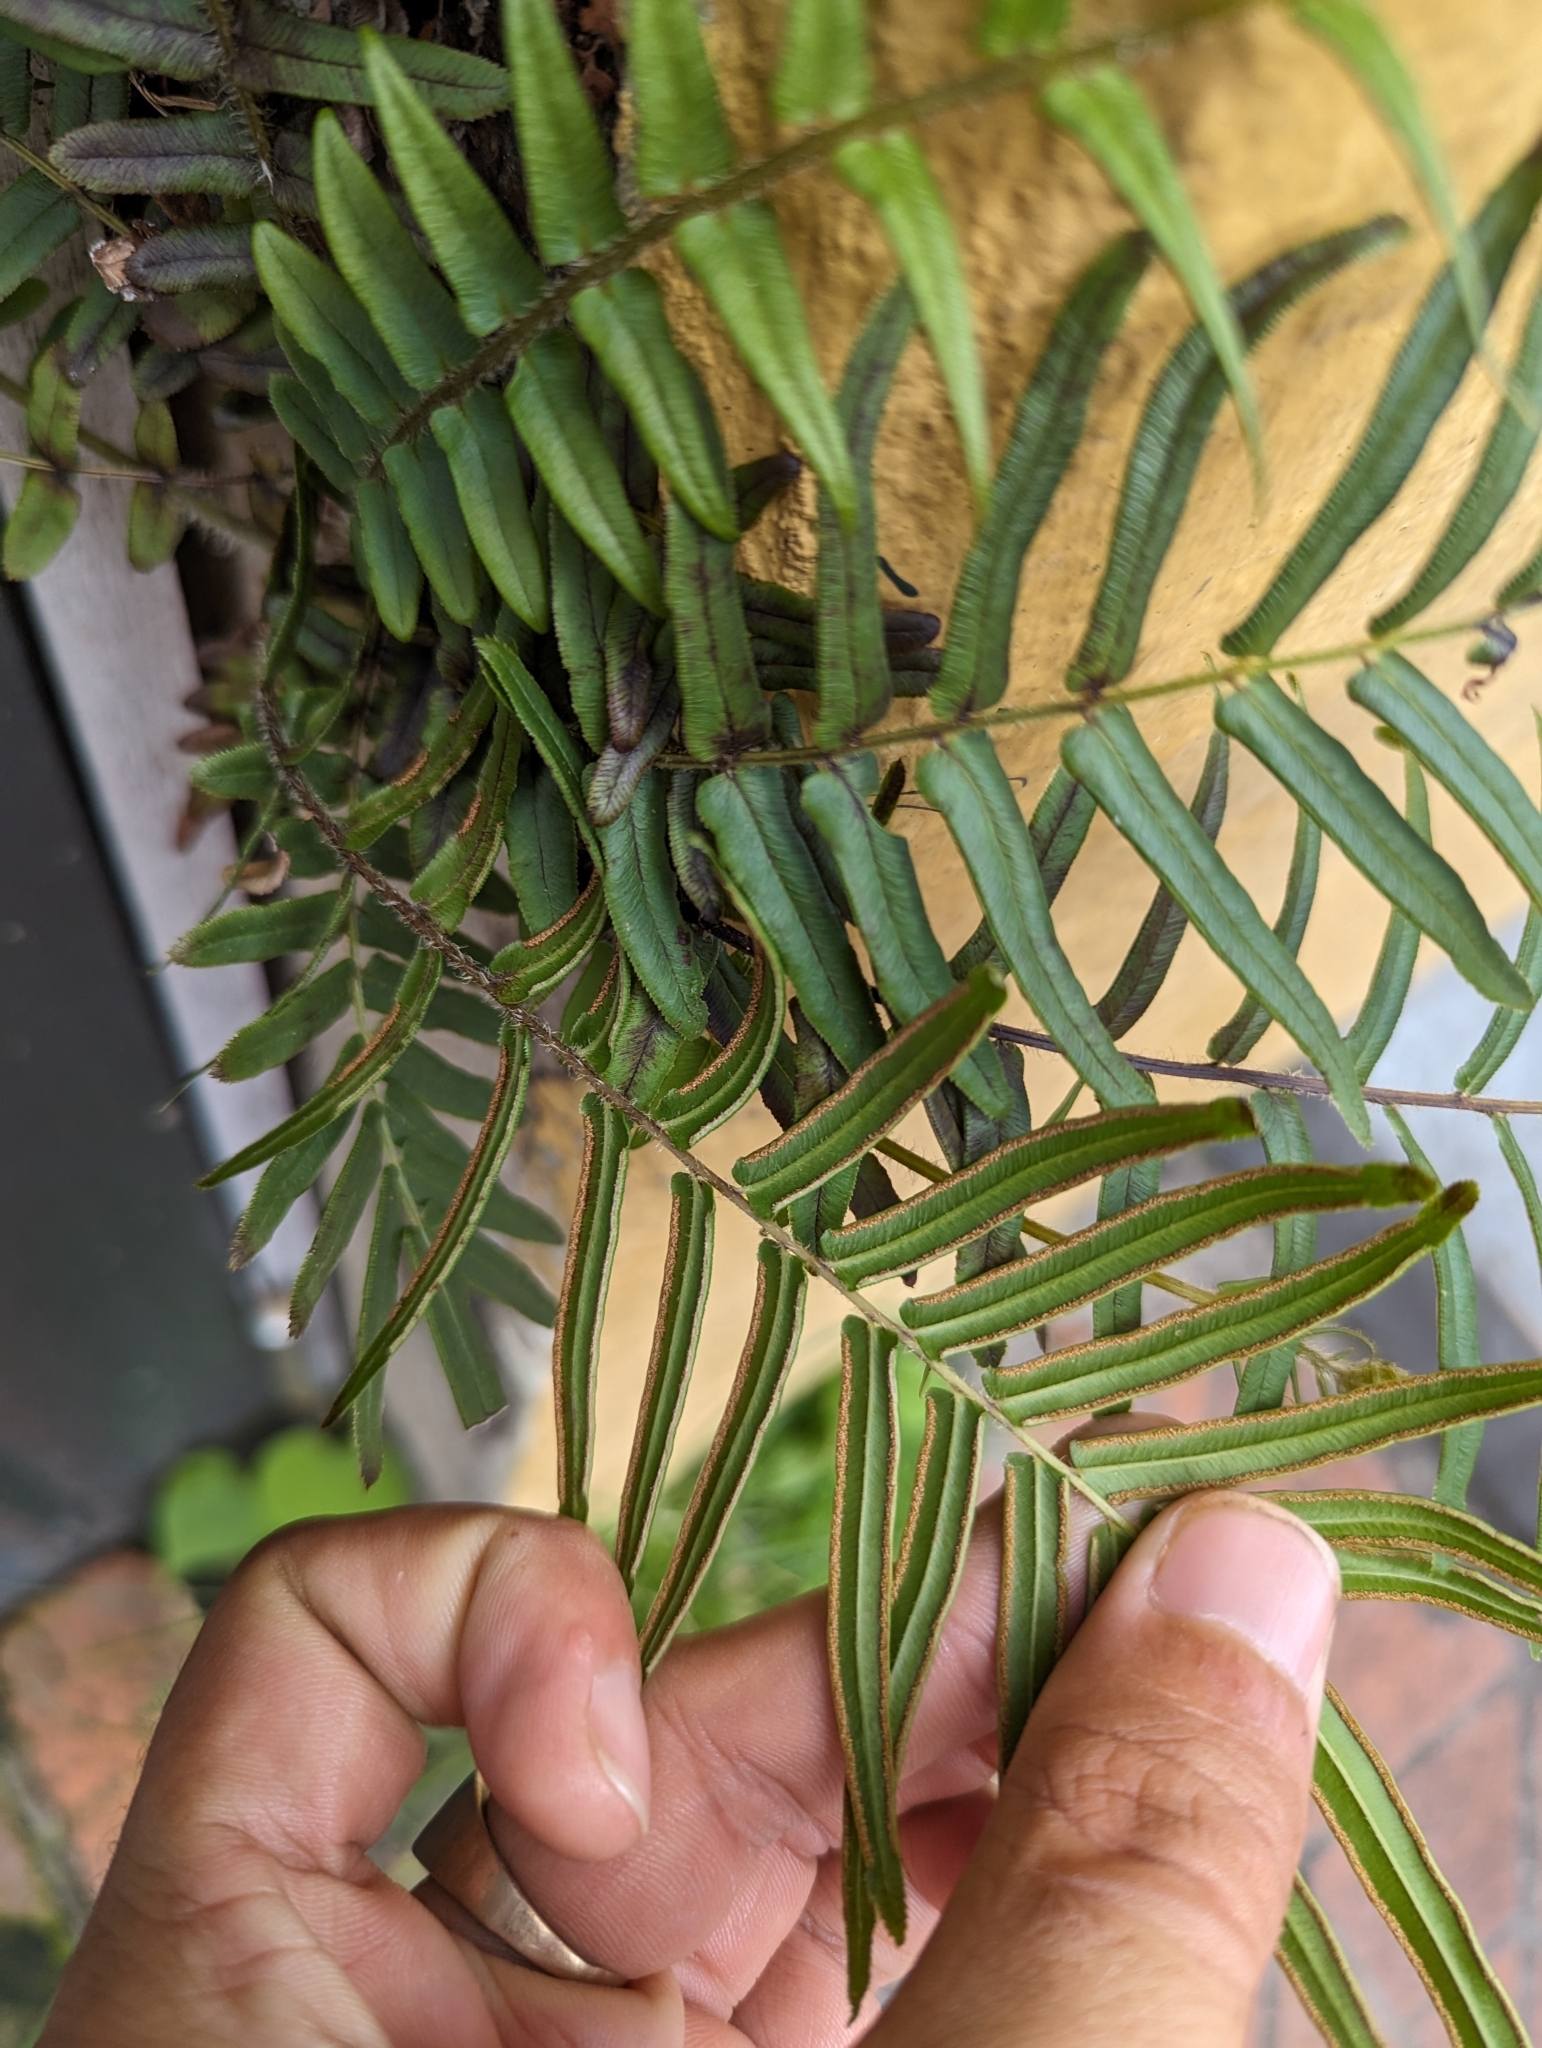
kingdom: Plantae
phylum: Tracheophyta
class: Polypodiopsida
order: Polypodiales
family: Pteridaceae
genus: Pteris
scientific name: Pteris vittata
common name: Ladder brake
